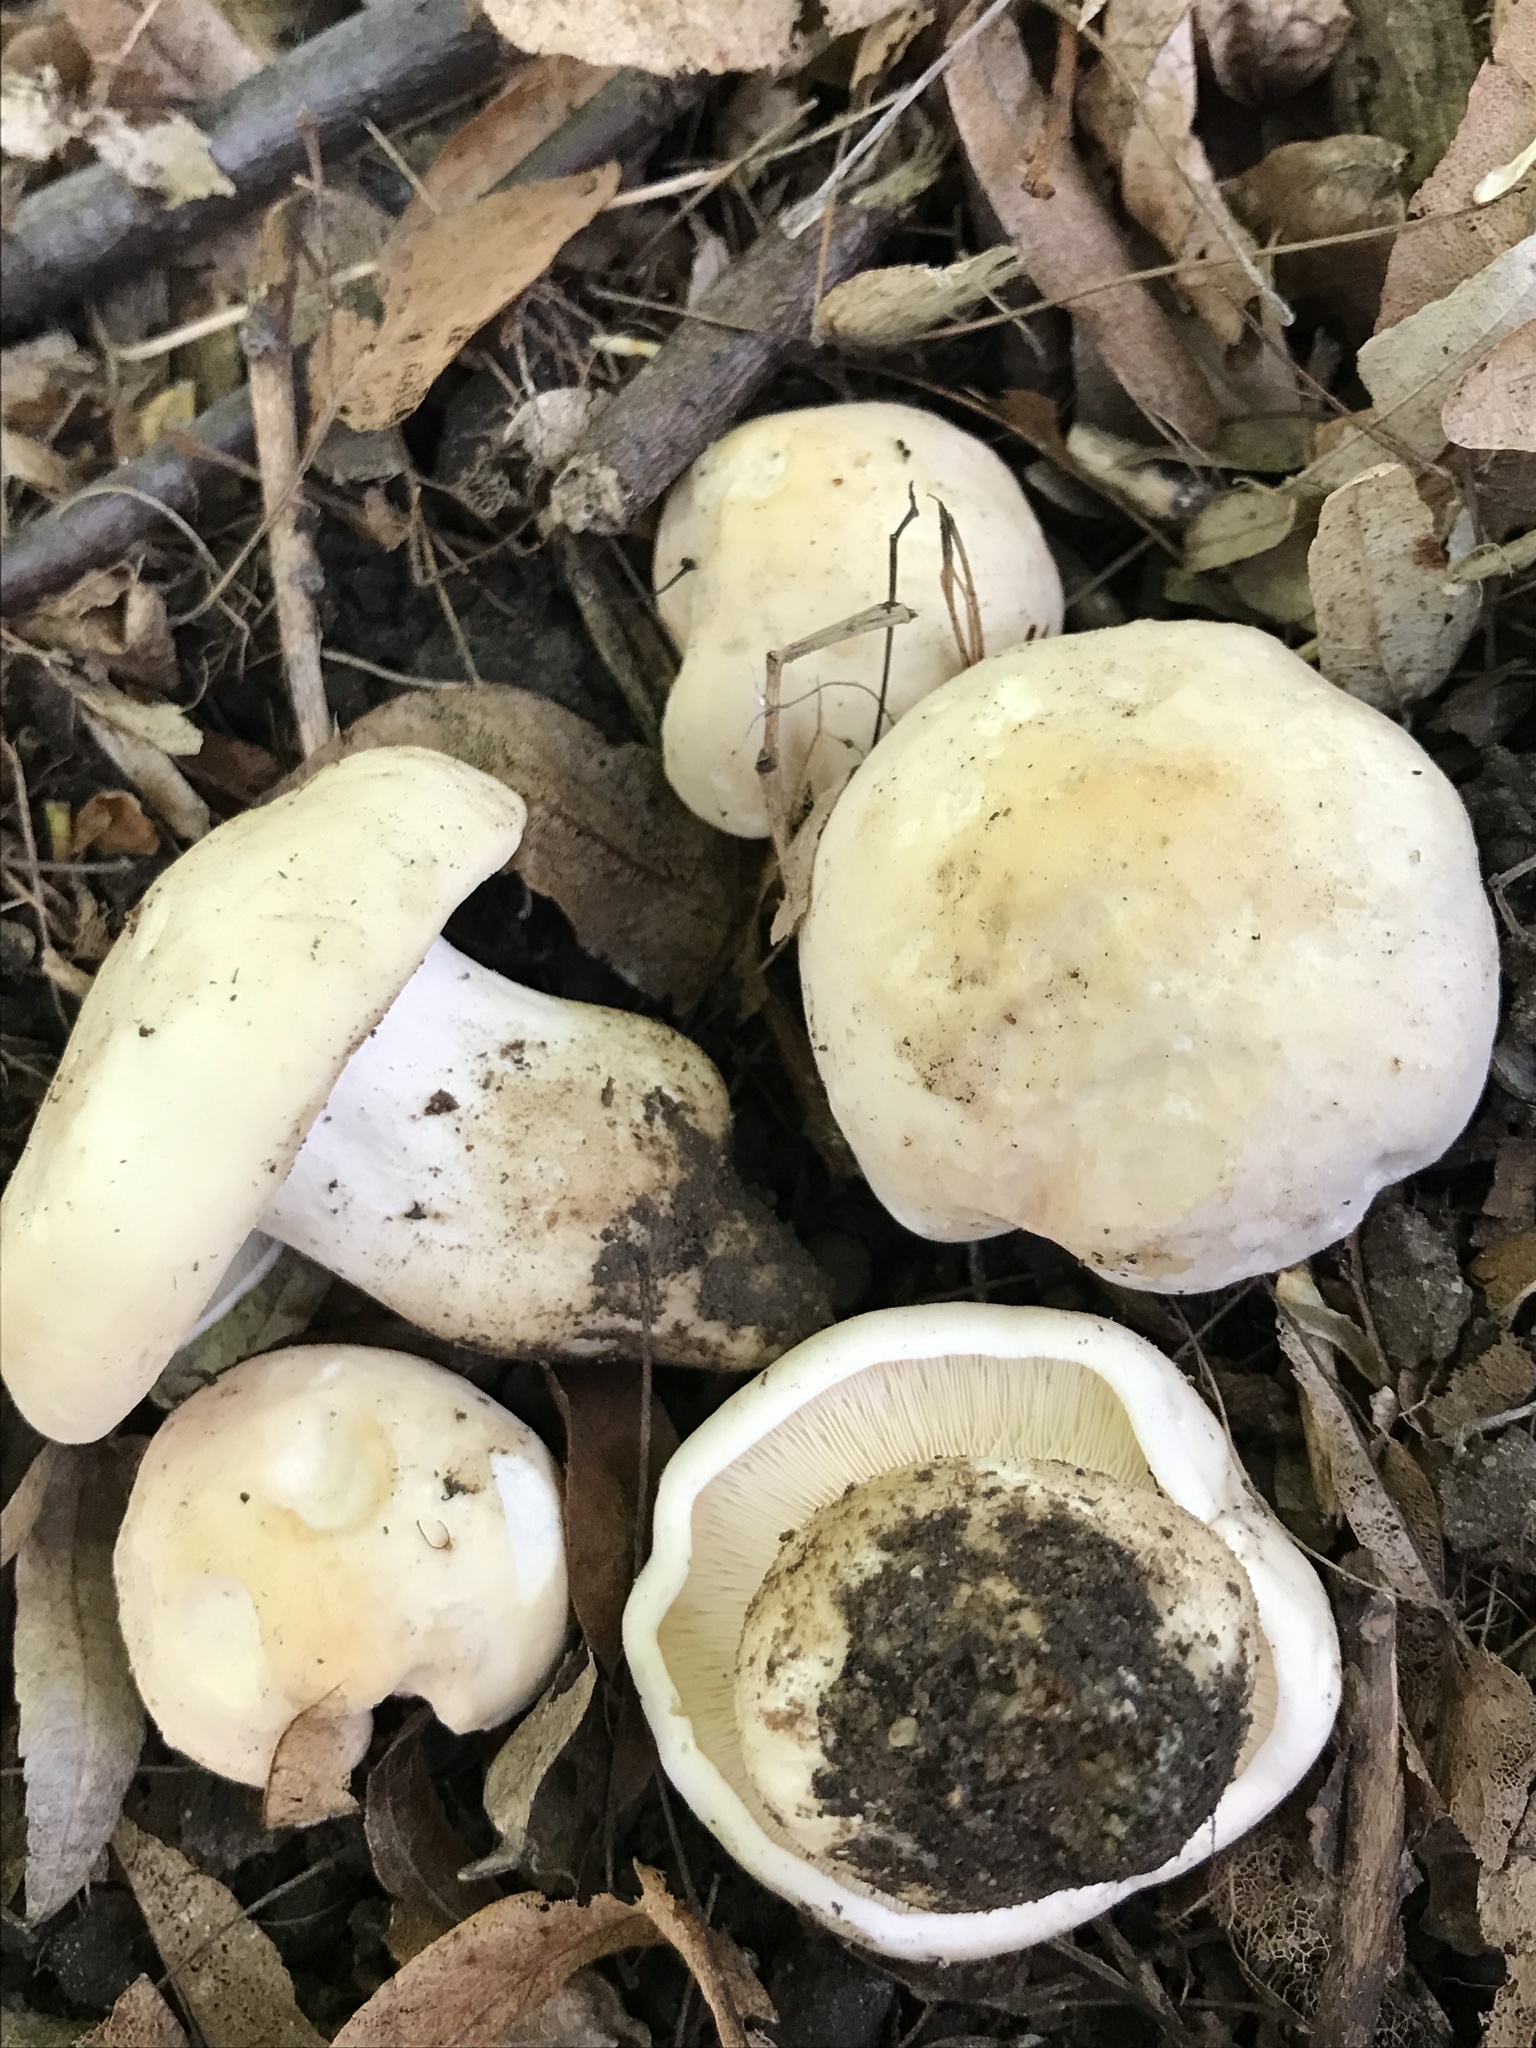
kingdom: Fungi
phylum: Basidiomycota
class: Agaricomycetes
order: Agaricales
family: Lyophyllaceae
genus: Calocybe
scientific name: Calocybe gambosa
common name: St. george's mushroom
